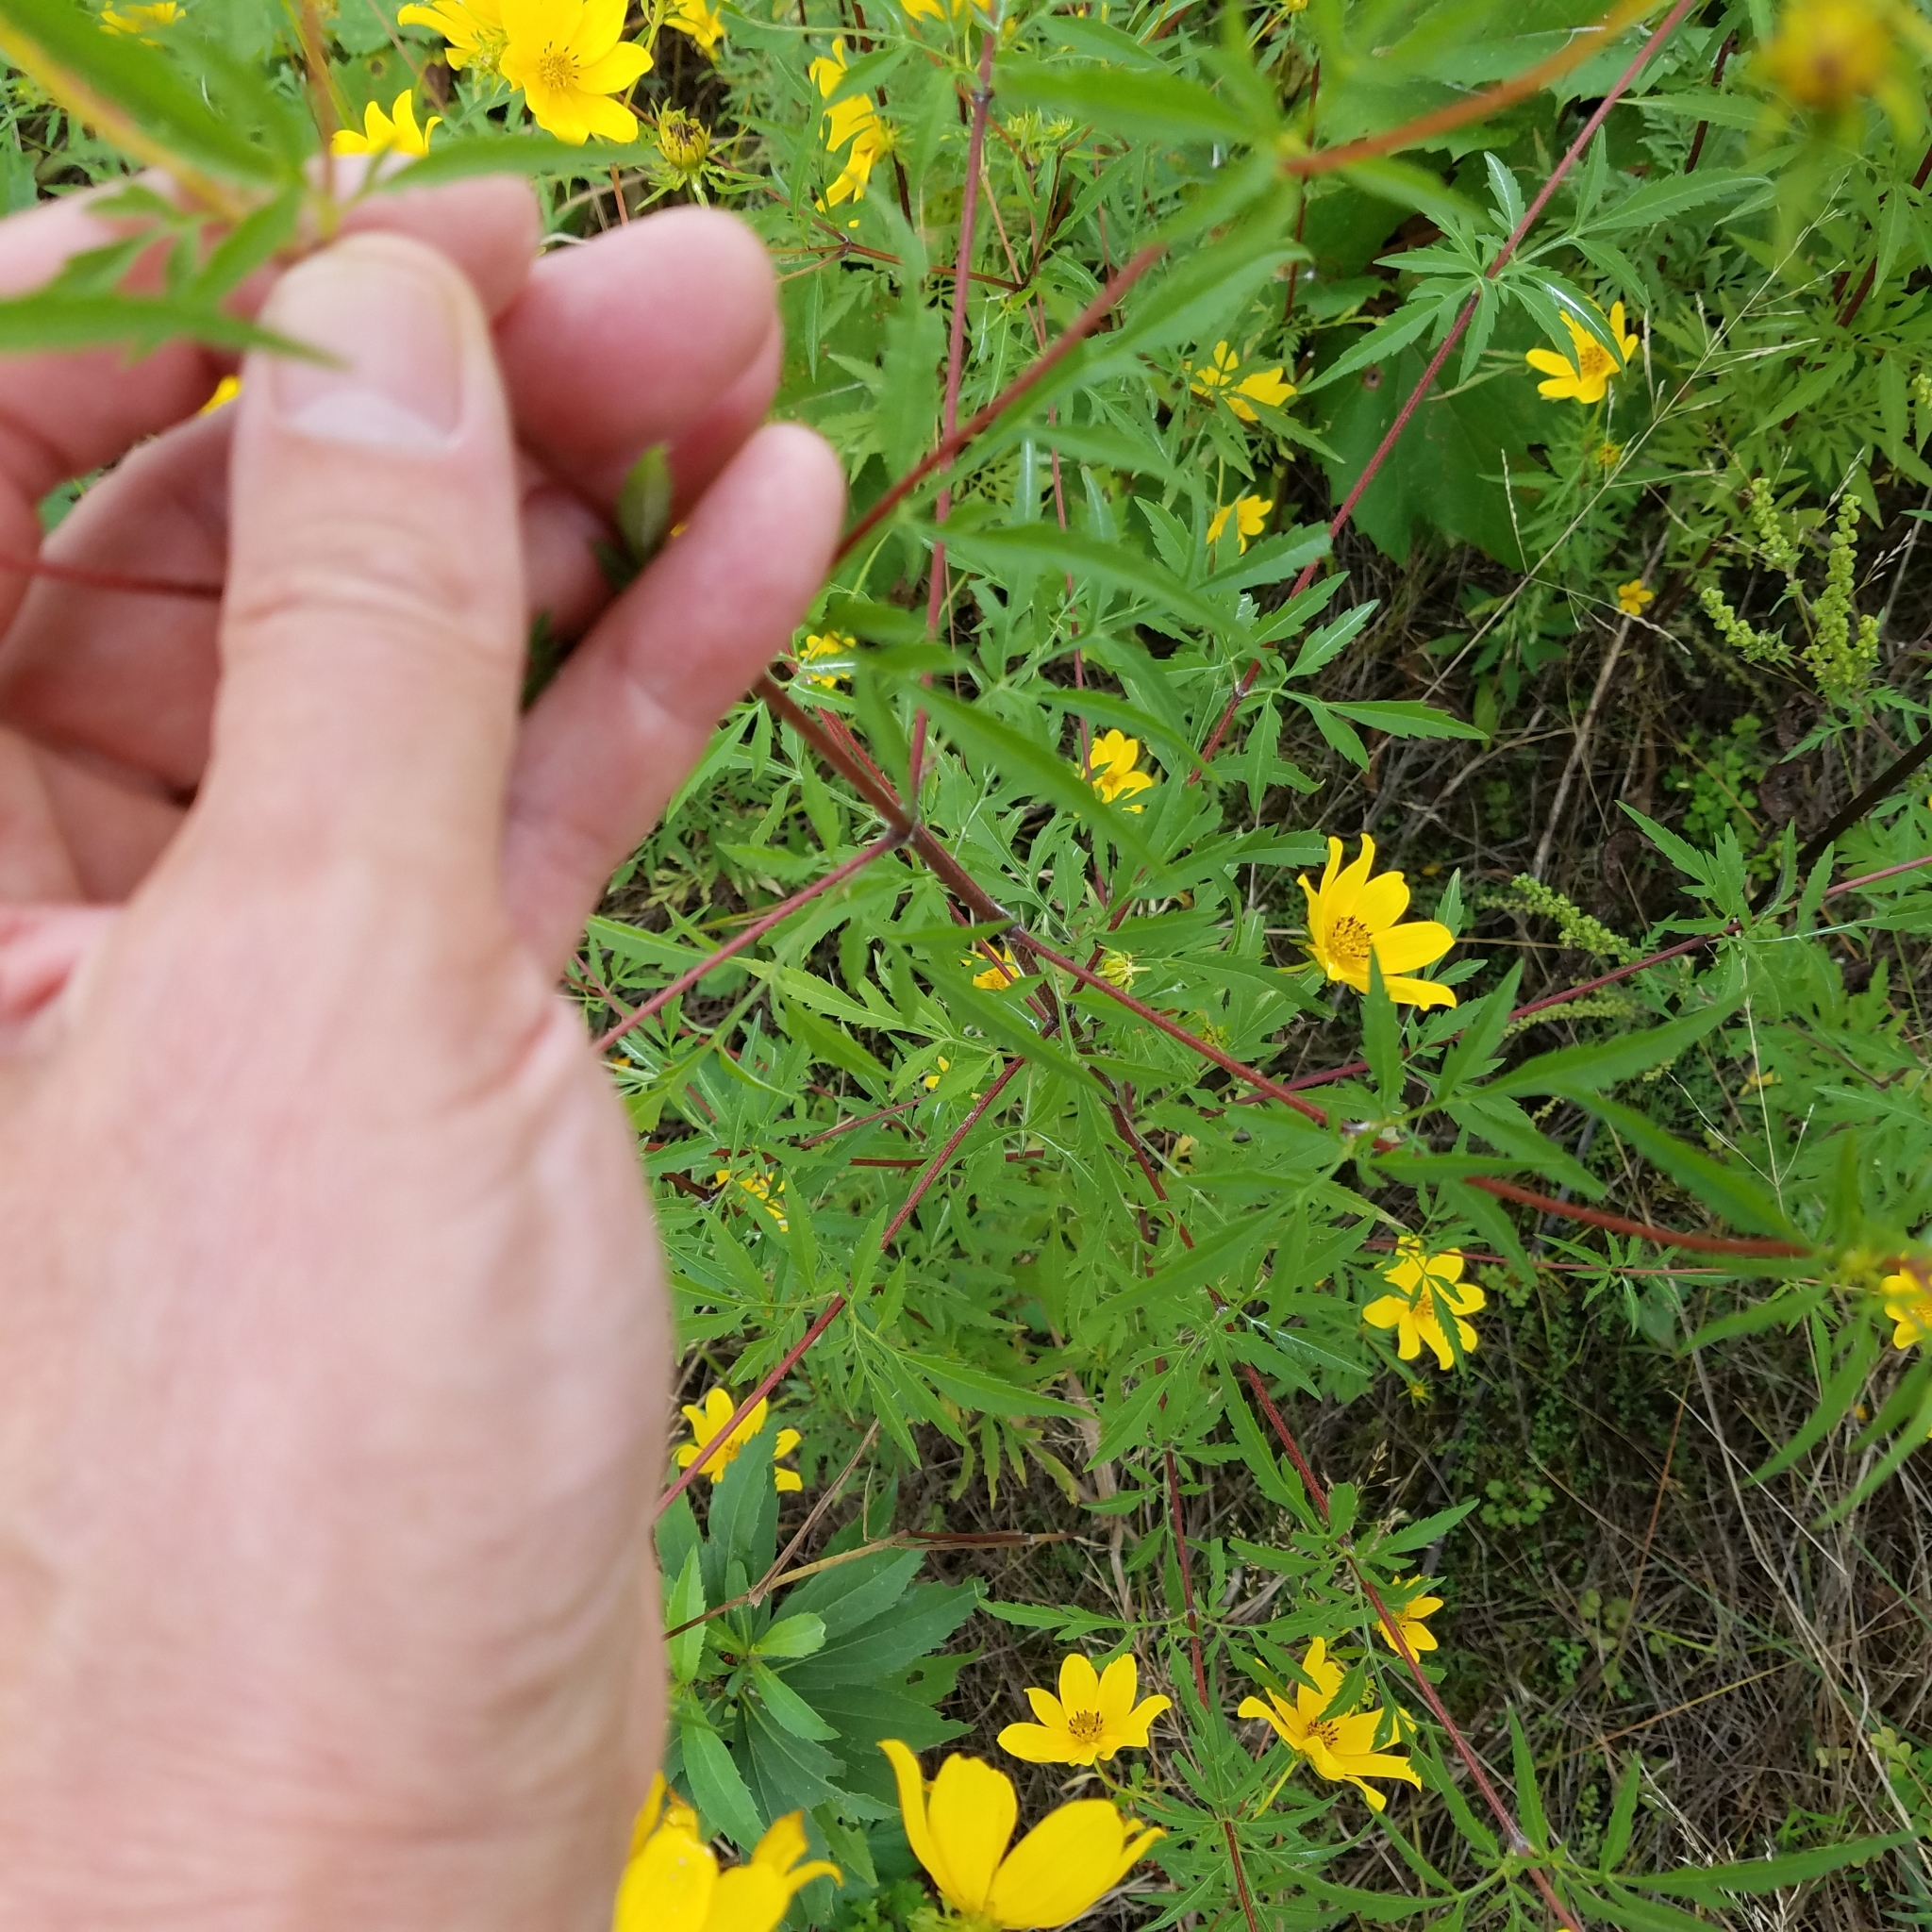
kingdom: Plantae
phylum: Tracheophyta
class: Magnoliopsida
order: Asterales
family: Asteraceae
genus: Bidens
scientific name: Bidens polylepis
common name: Awnless beggarticks
